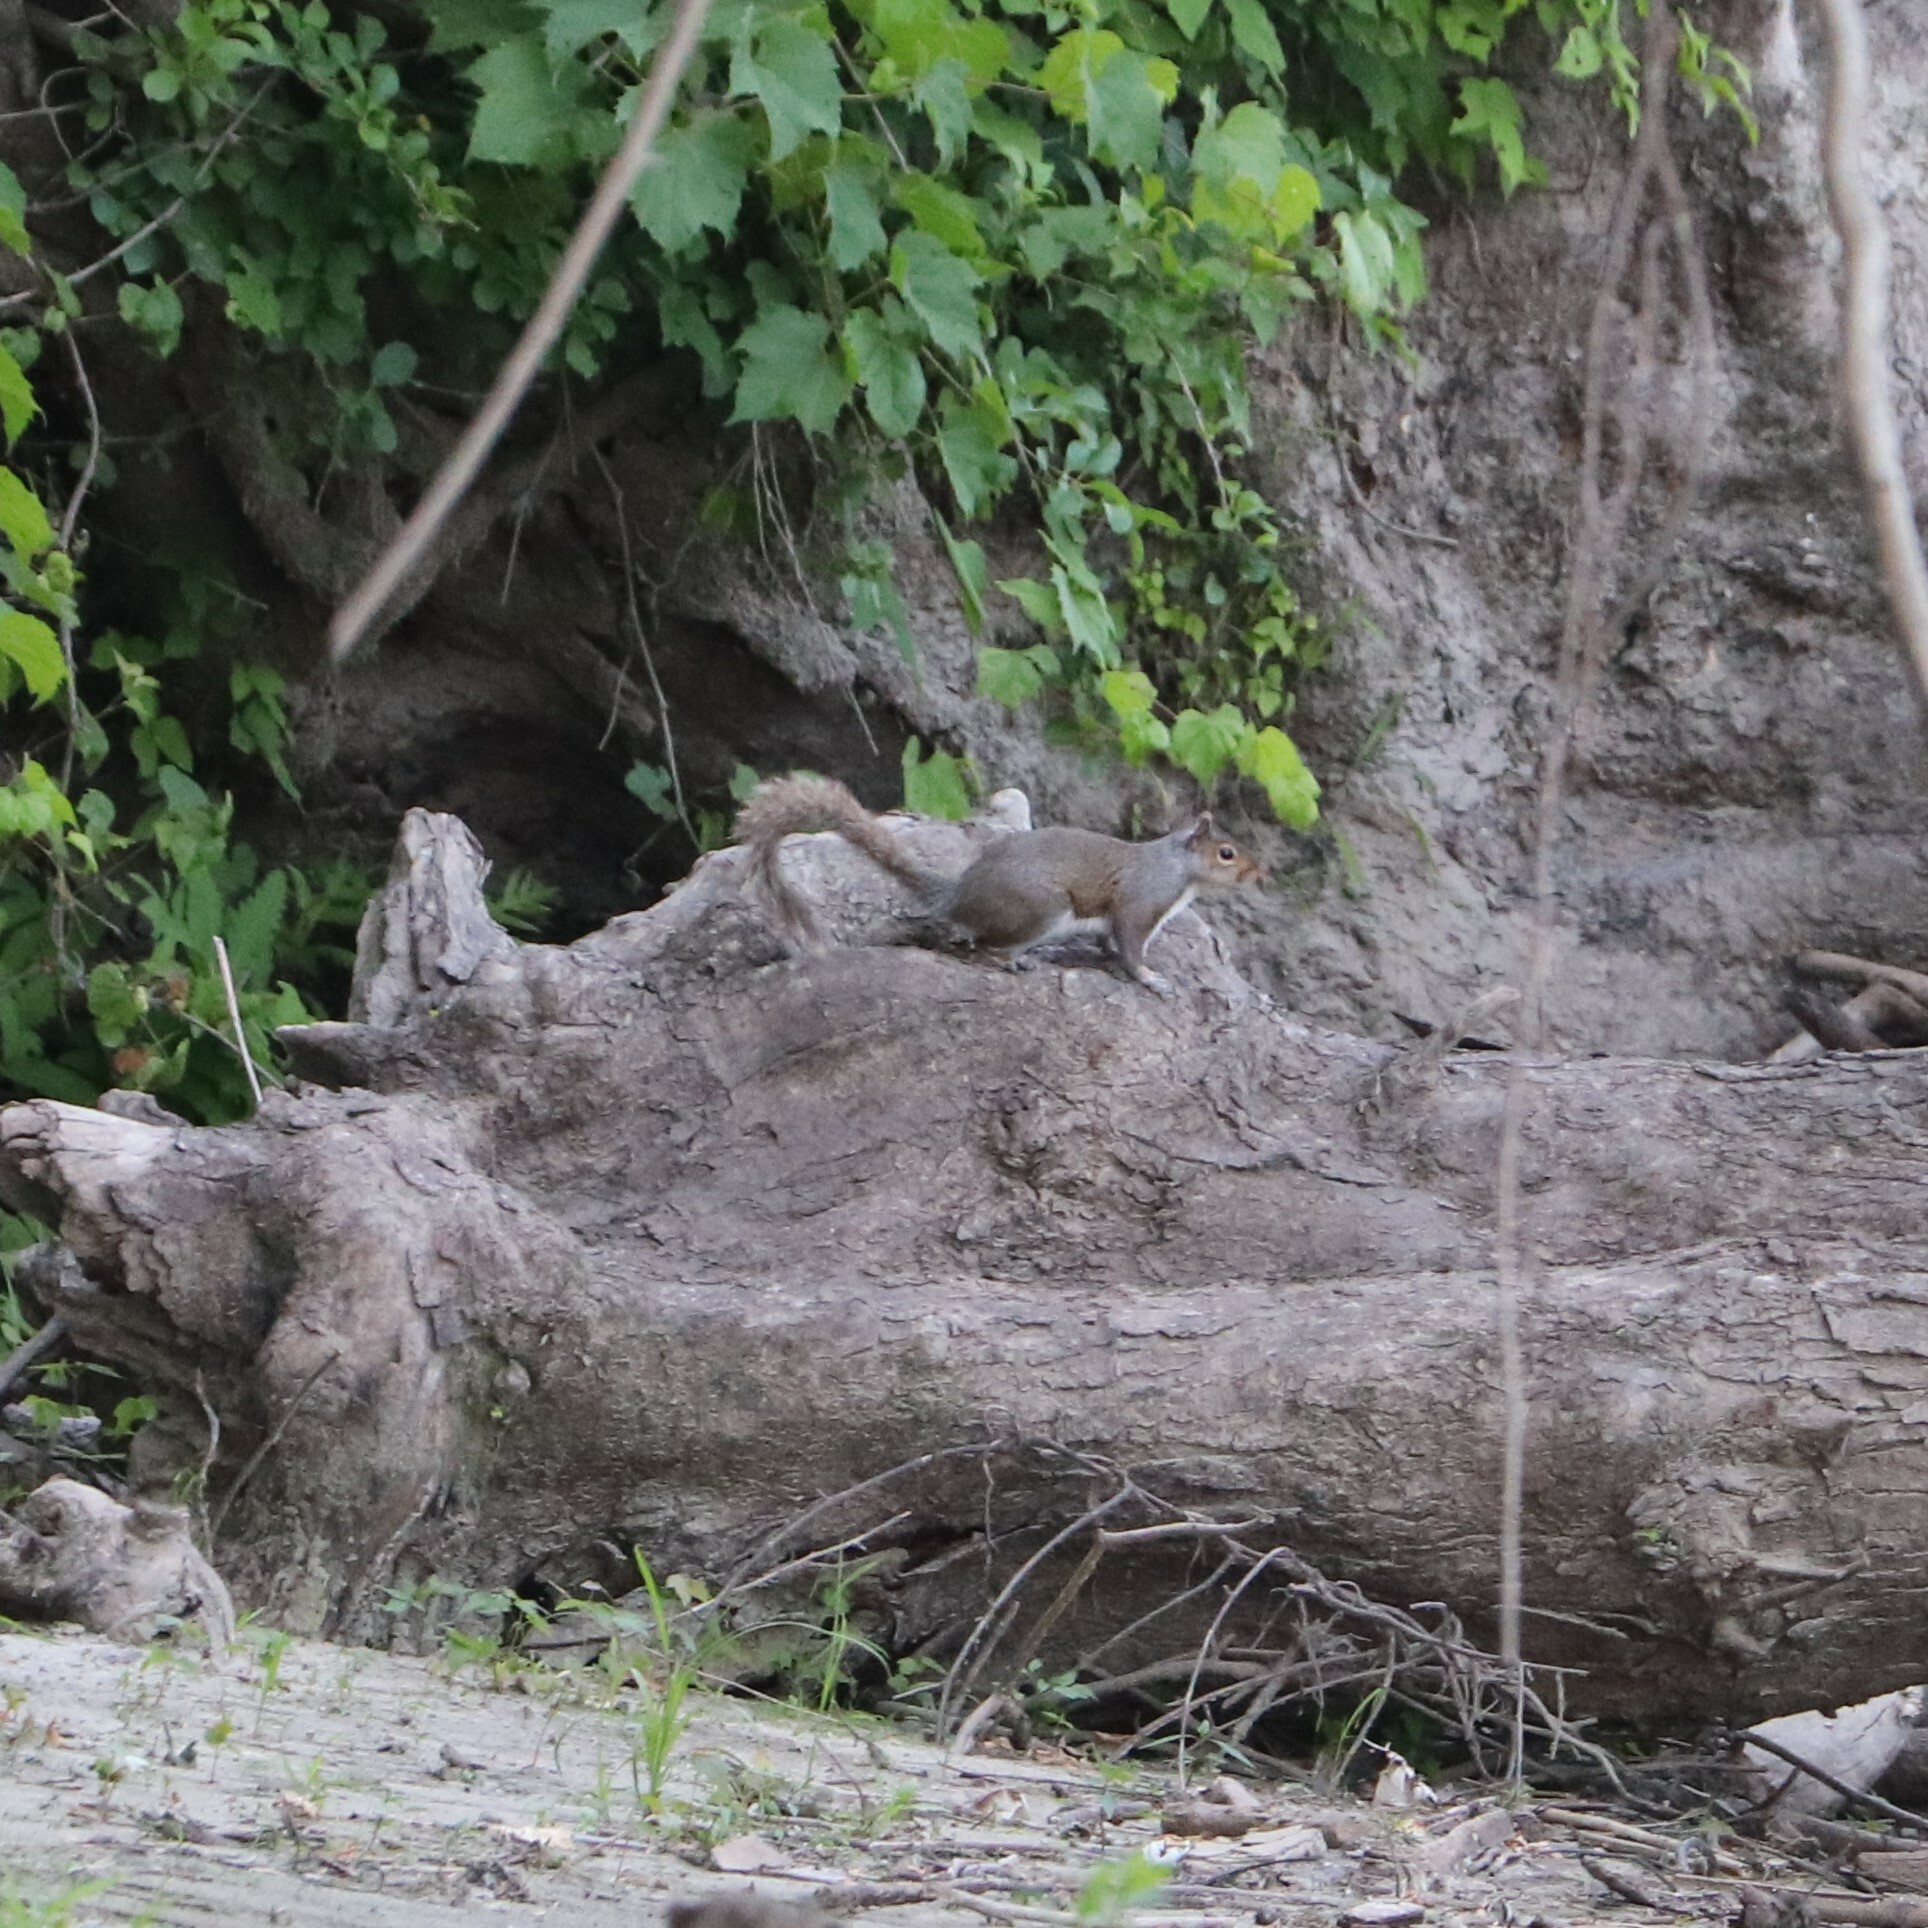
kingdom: Animalia
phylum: Chordata
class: Mammalia
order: Rodentia
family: Sciuridae
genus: Sciurus
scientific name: Sciurus carolinensis
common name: Eastern gray squirrel
